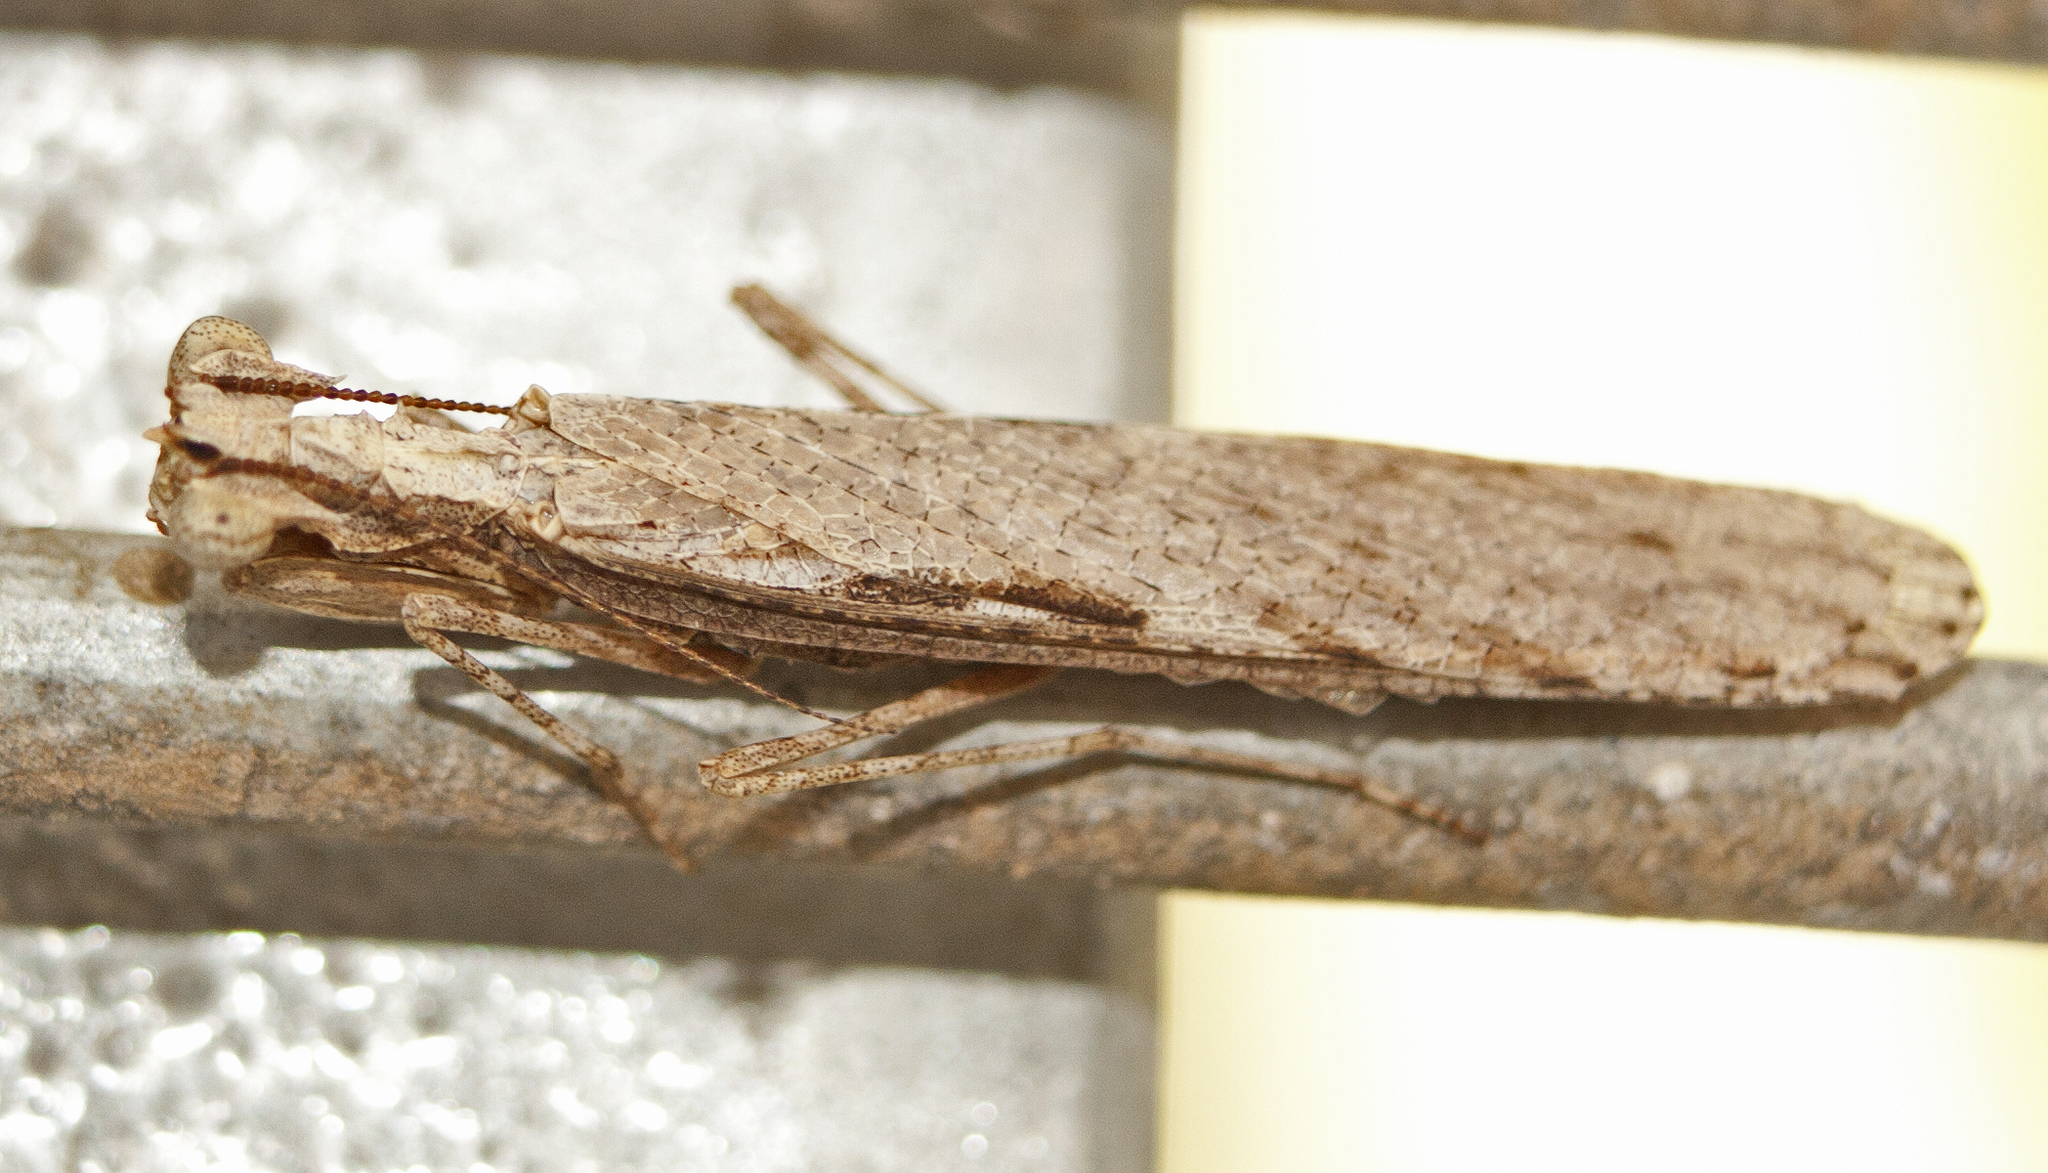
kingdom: Animalia
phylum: Arthropoda
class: Insecta
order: Mantodea
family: Nanomantidae
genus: Metoxypilus
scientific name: Metoxypilus lobifrons
